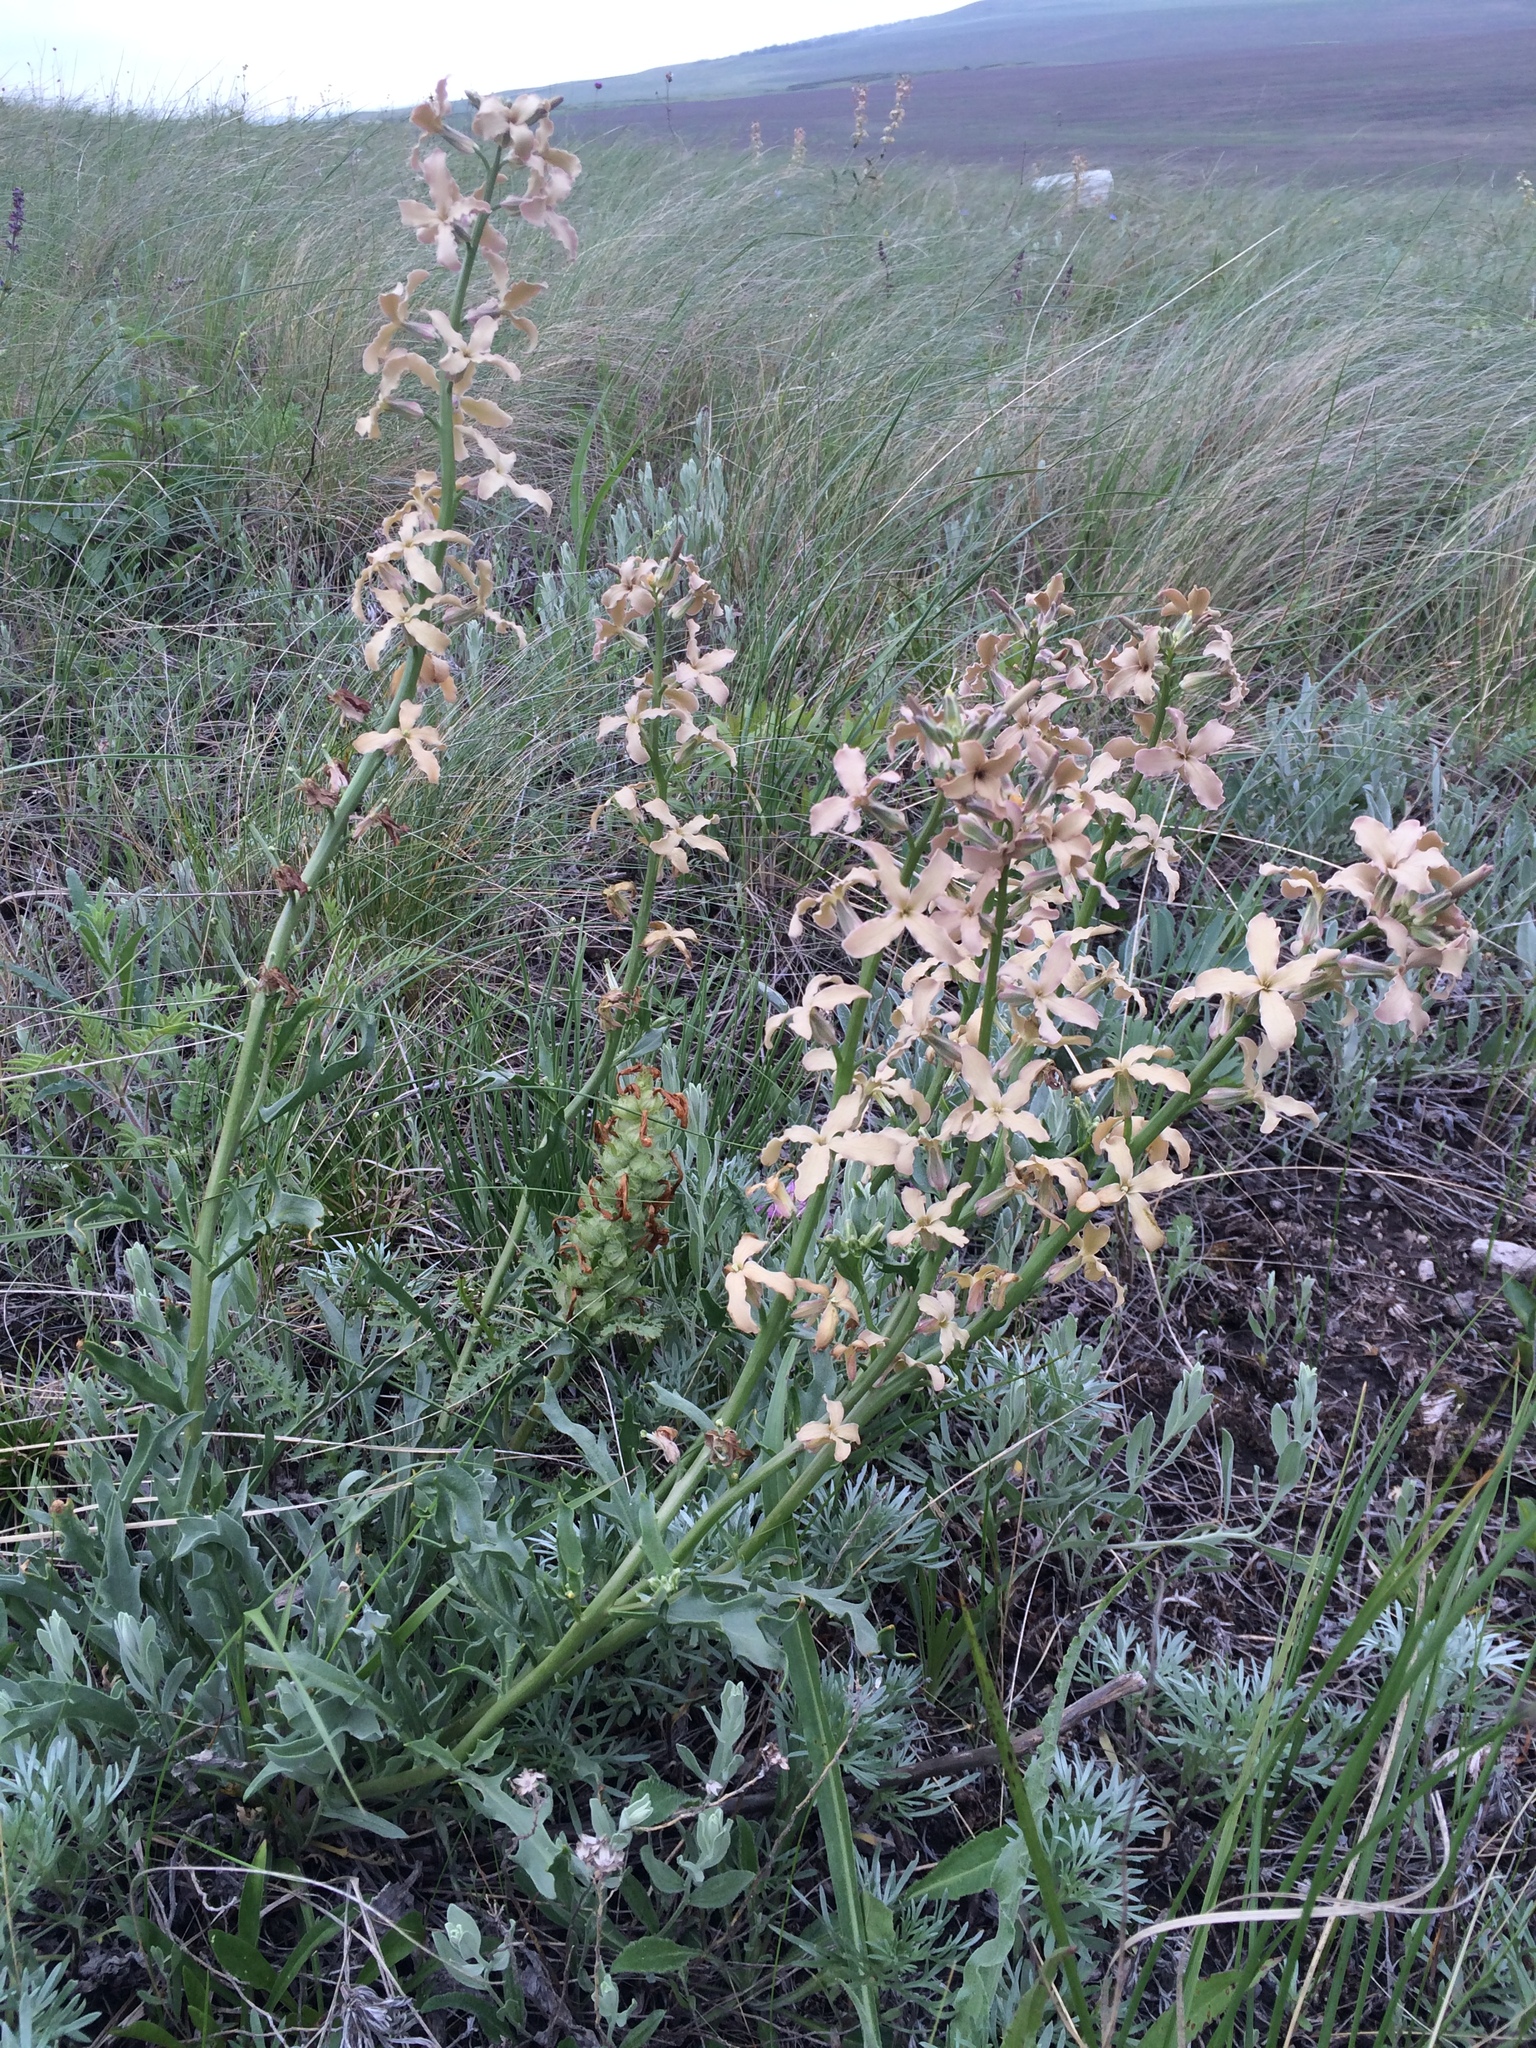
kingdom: Plantae
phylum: Tracheophyta
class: Magnoliopsida
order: Brassicales
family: Brassicaceae
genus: Matthiola
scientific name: Matthiola fragrans
